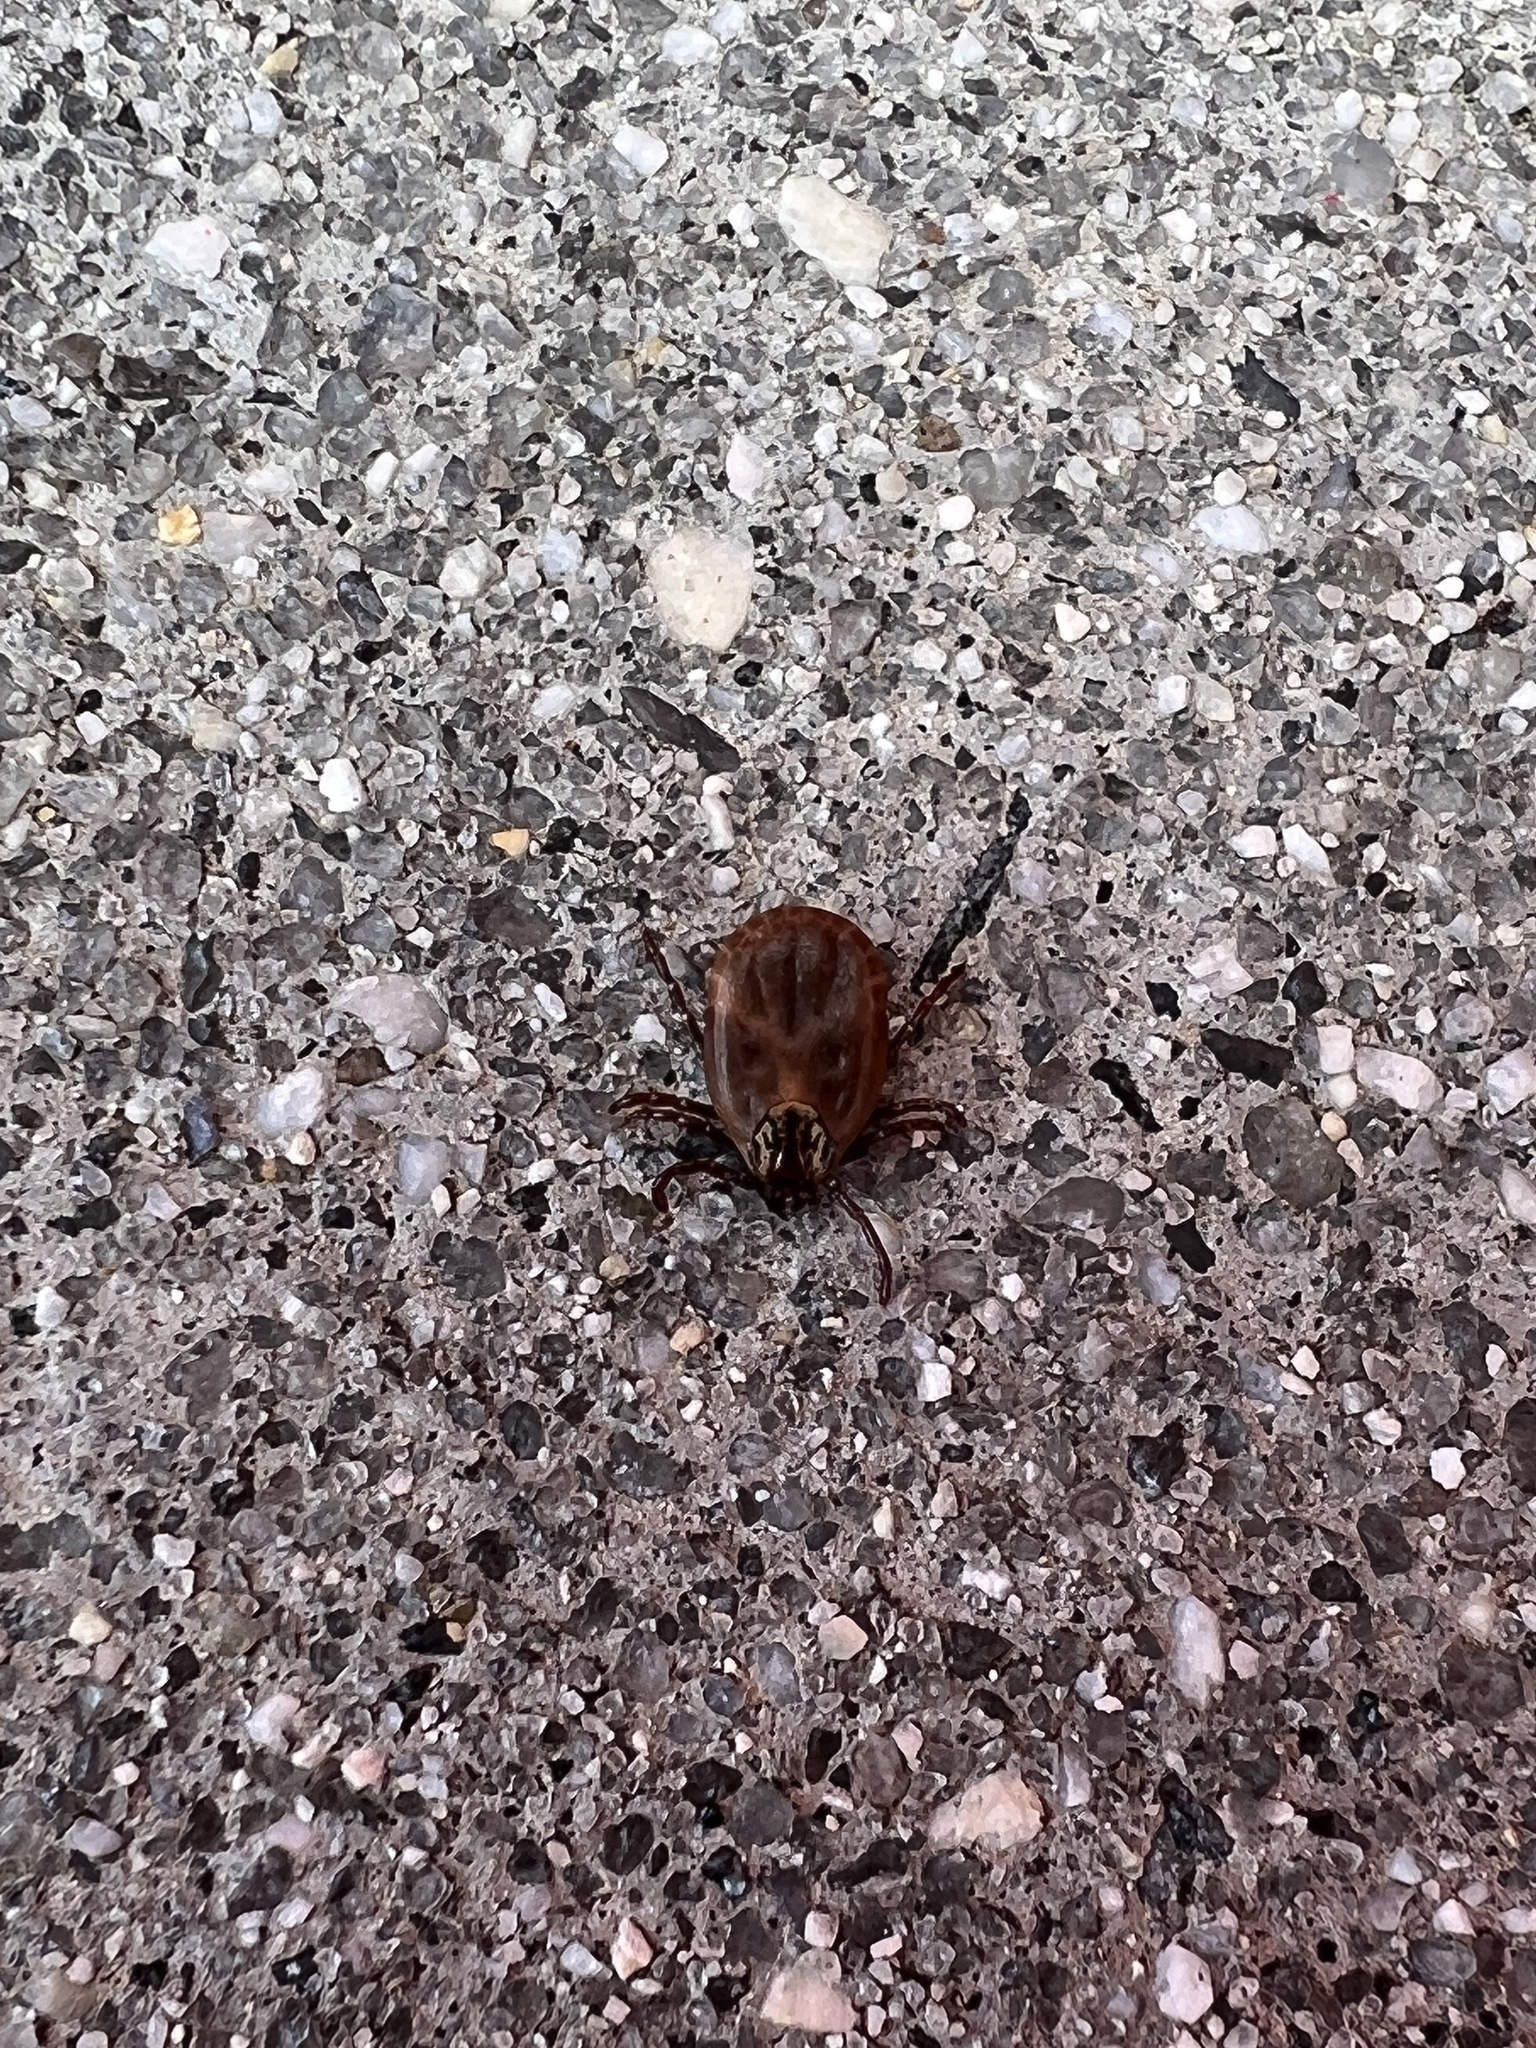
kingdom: Animalia
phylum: Arthropoda
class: Arachnida
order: Ixodida
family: Ixodidae
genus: Dermacentor
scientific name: Dermacentor variabilis
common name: American dog tick
